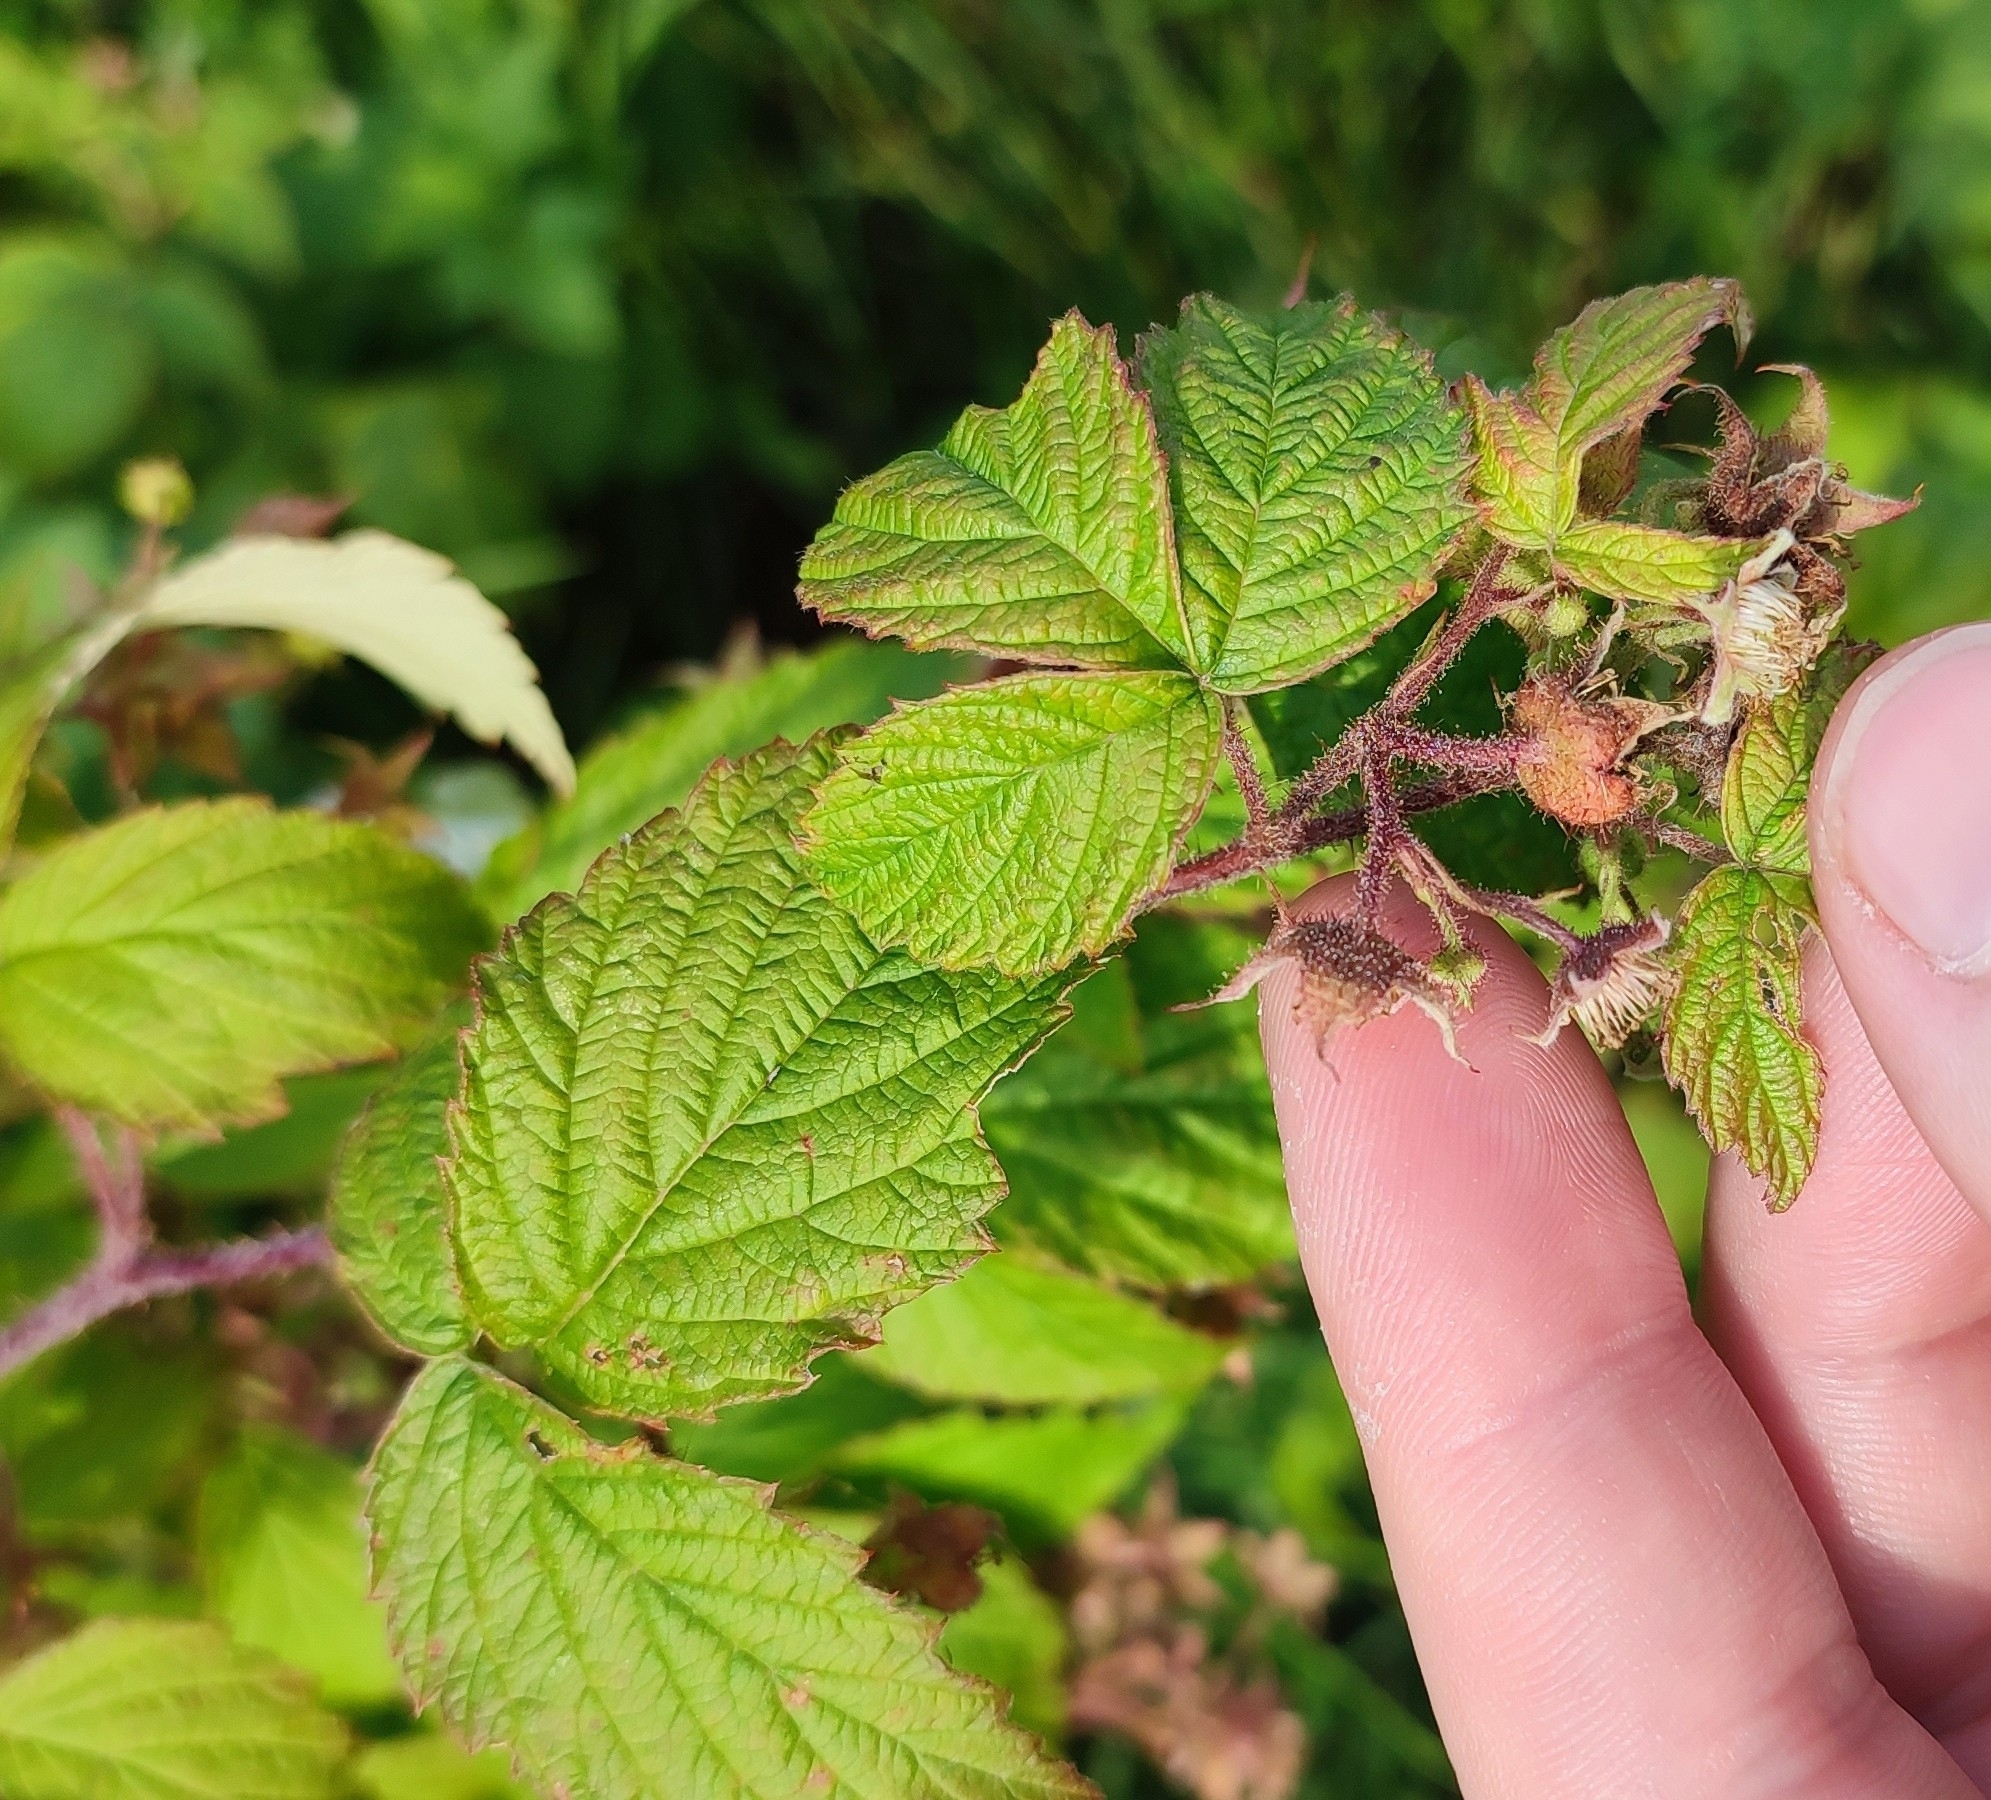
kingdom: Plantae
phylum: Tracheophyta
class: Magnoliopsida
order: Rosales
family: Rosaceae
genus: Rubus
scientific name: Rubus sachalinensis
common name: Red raspberry
